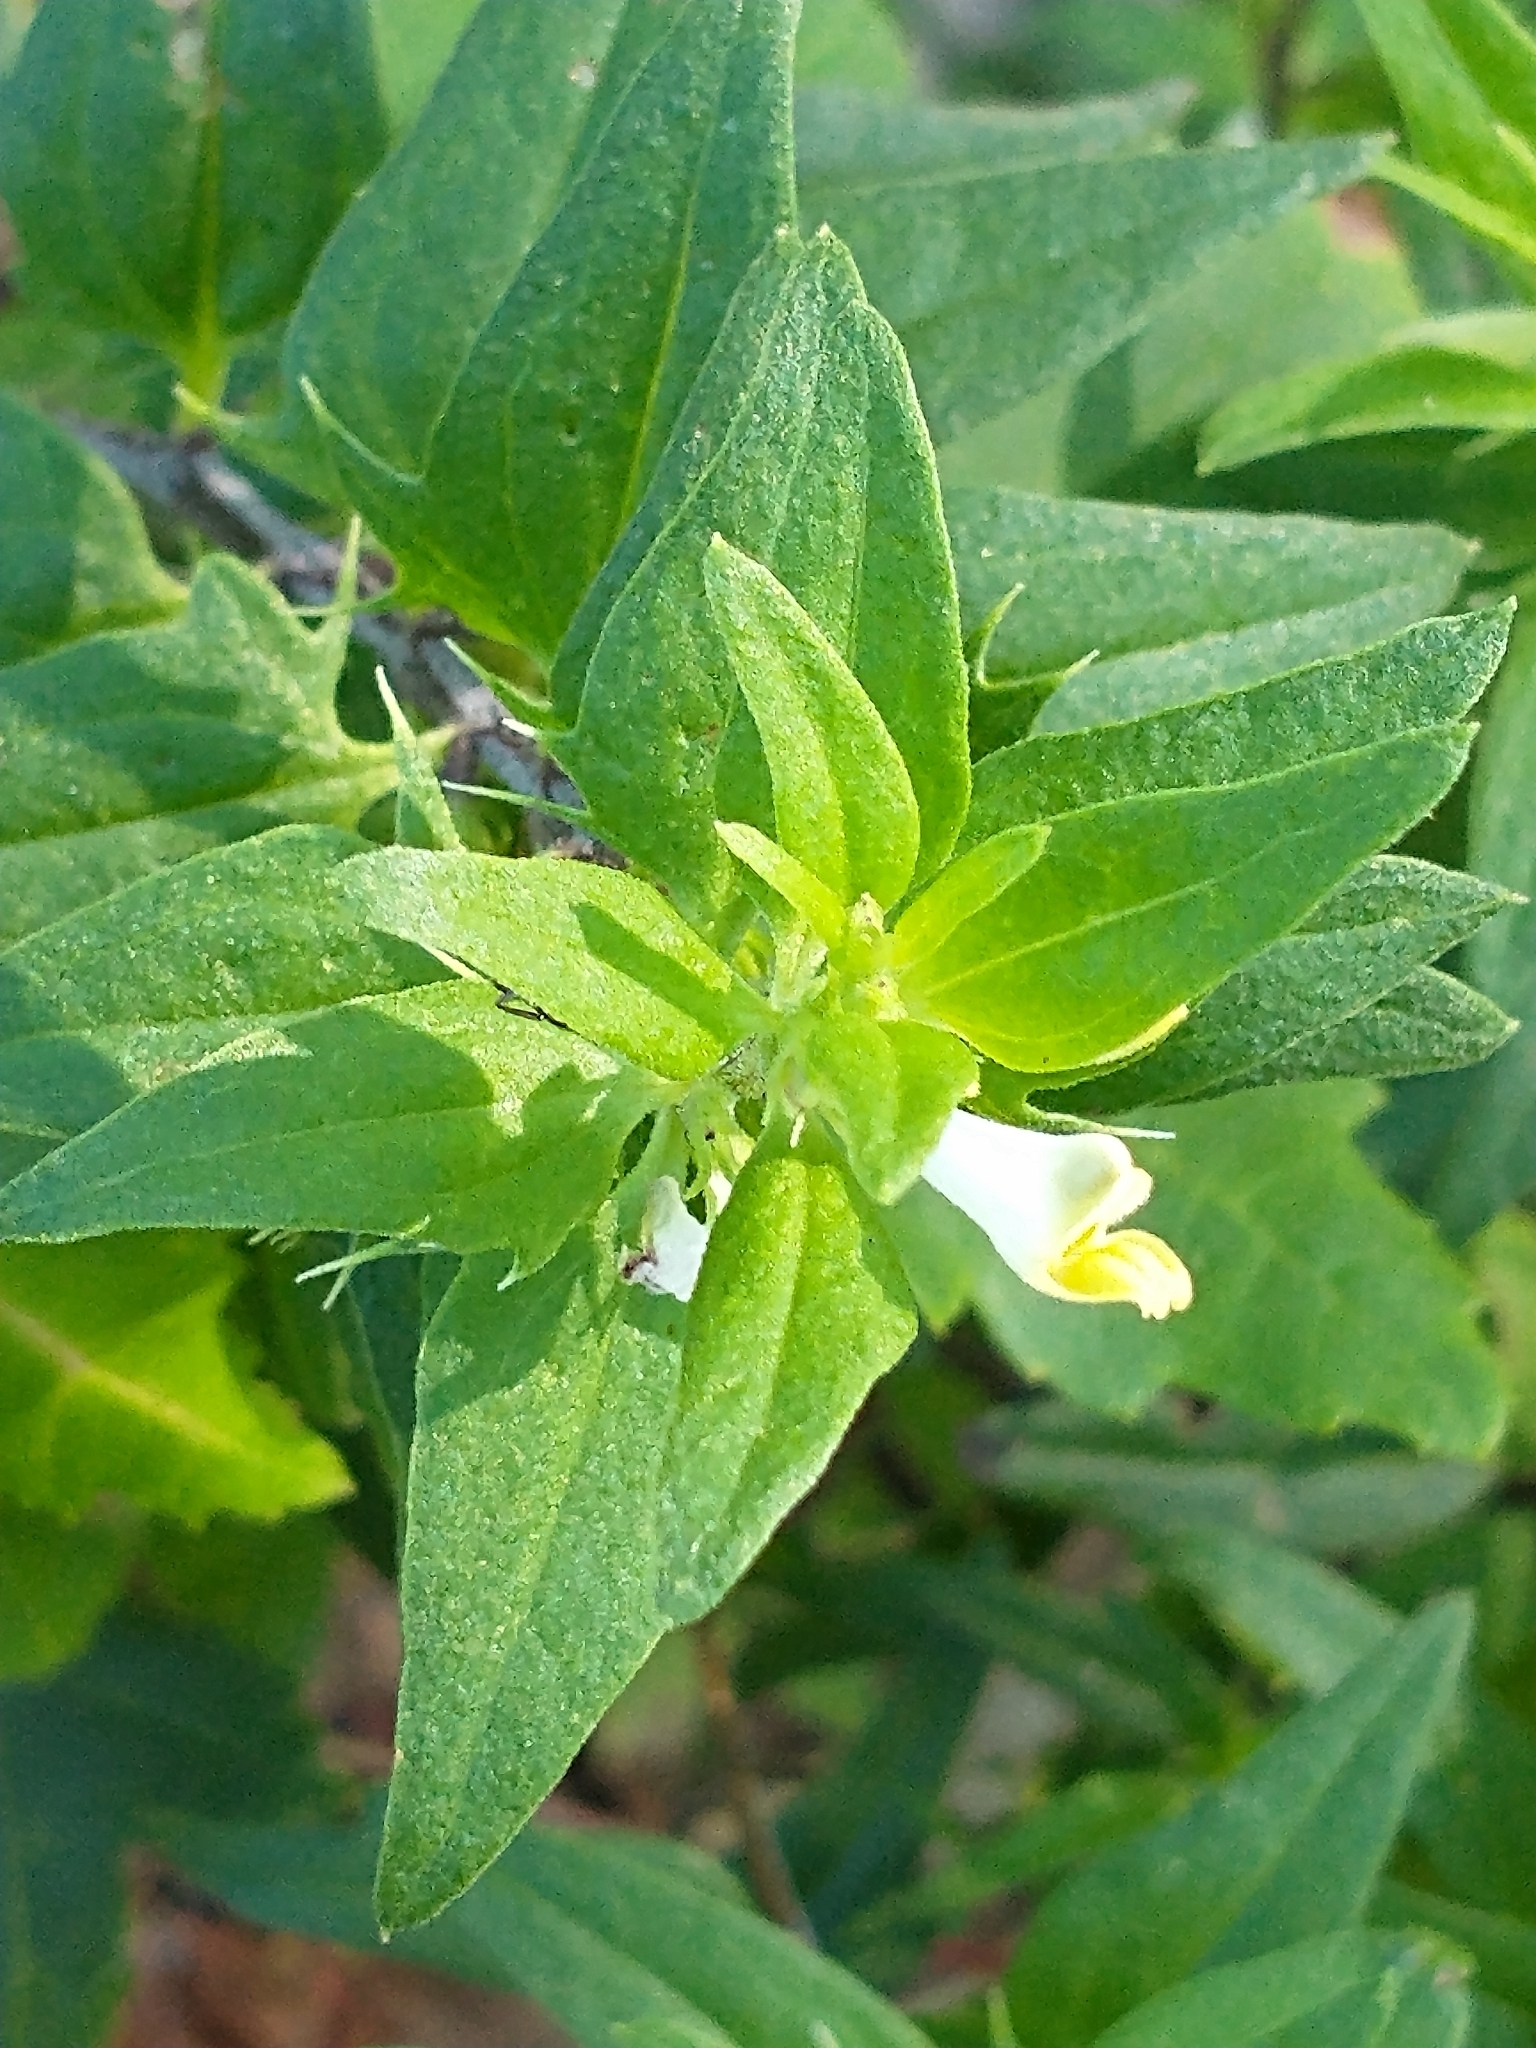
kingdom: Plantae
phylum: Tracheophyta
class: Magnoliopsida
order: Lamiales
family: Orobanchaceae
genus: Melampyrum
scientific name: Melampyrum lineare
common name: American cow-wheat
